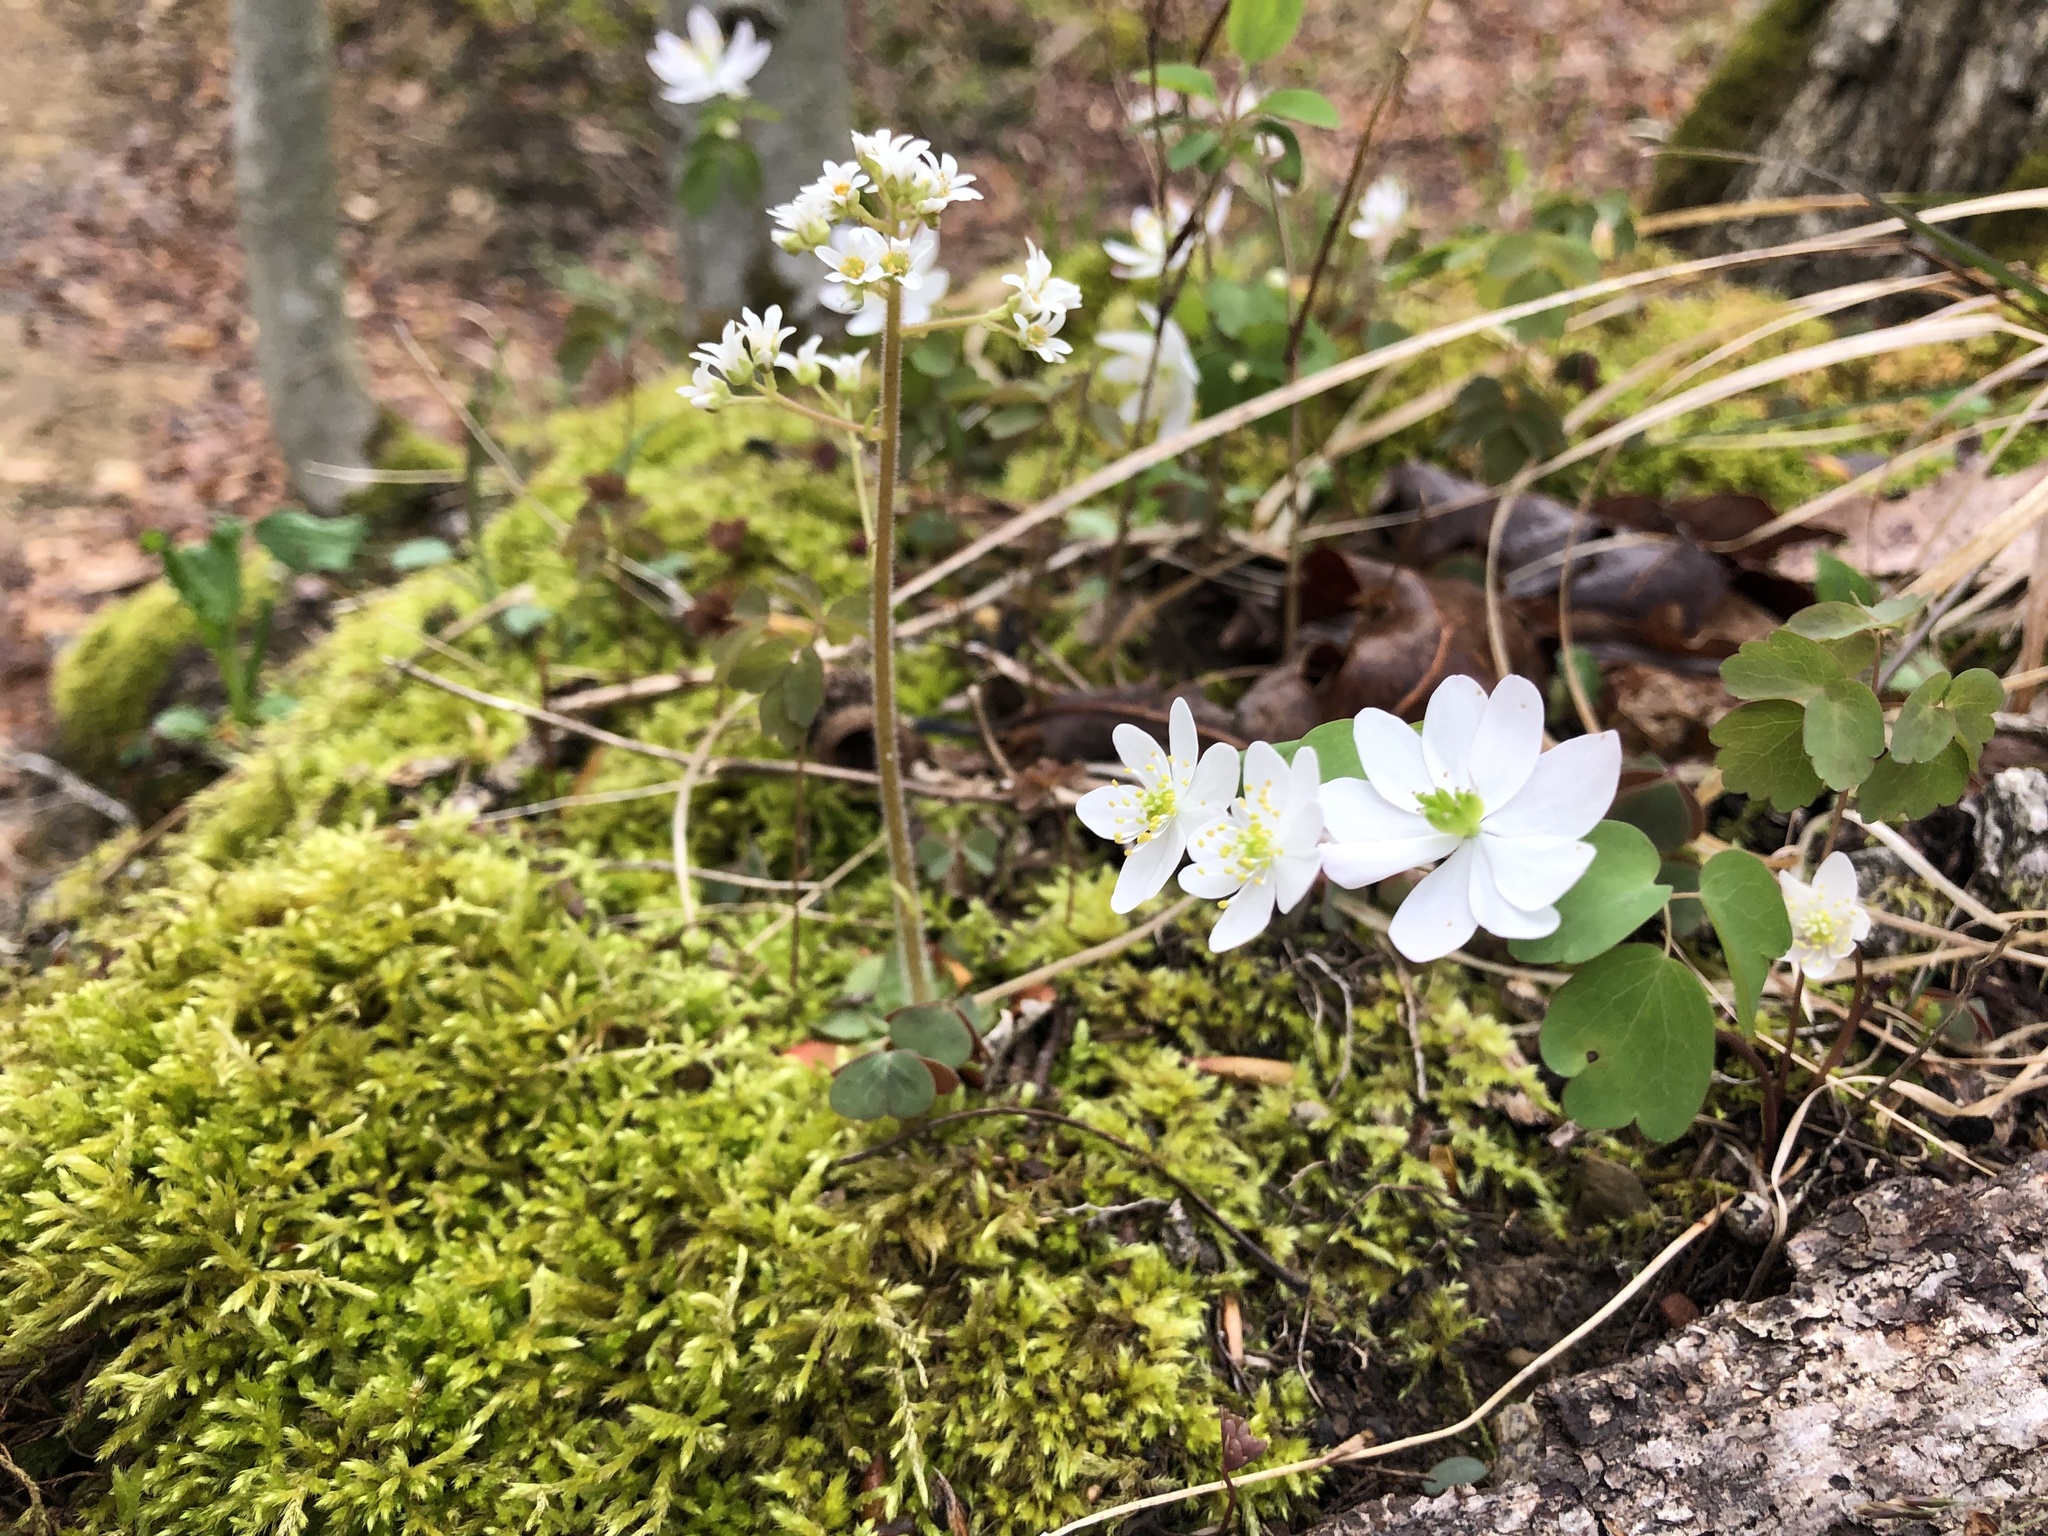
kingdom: Plantae
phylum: Tracheophyta
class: Magnoliopsida
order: Ranunculales
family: Ranunculaceae
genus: Thalictrum
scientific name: Thalictrum thalictroides
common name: Rue-anemone
